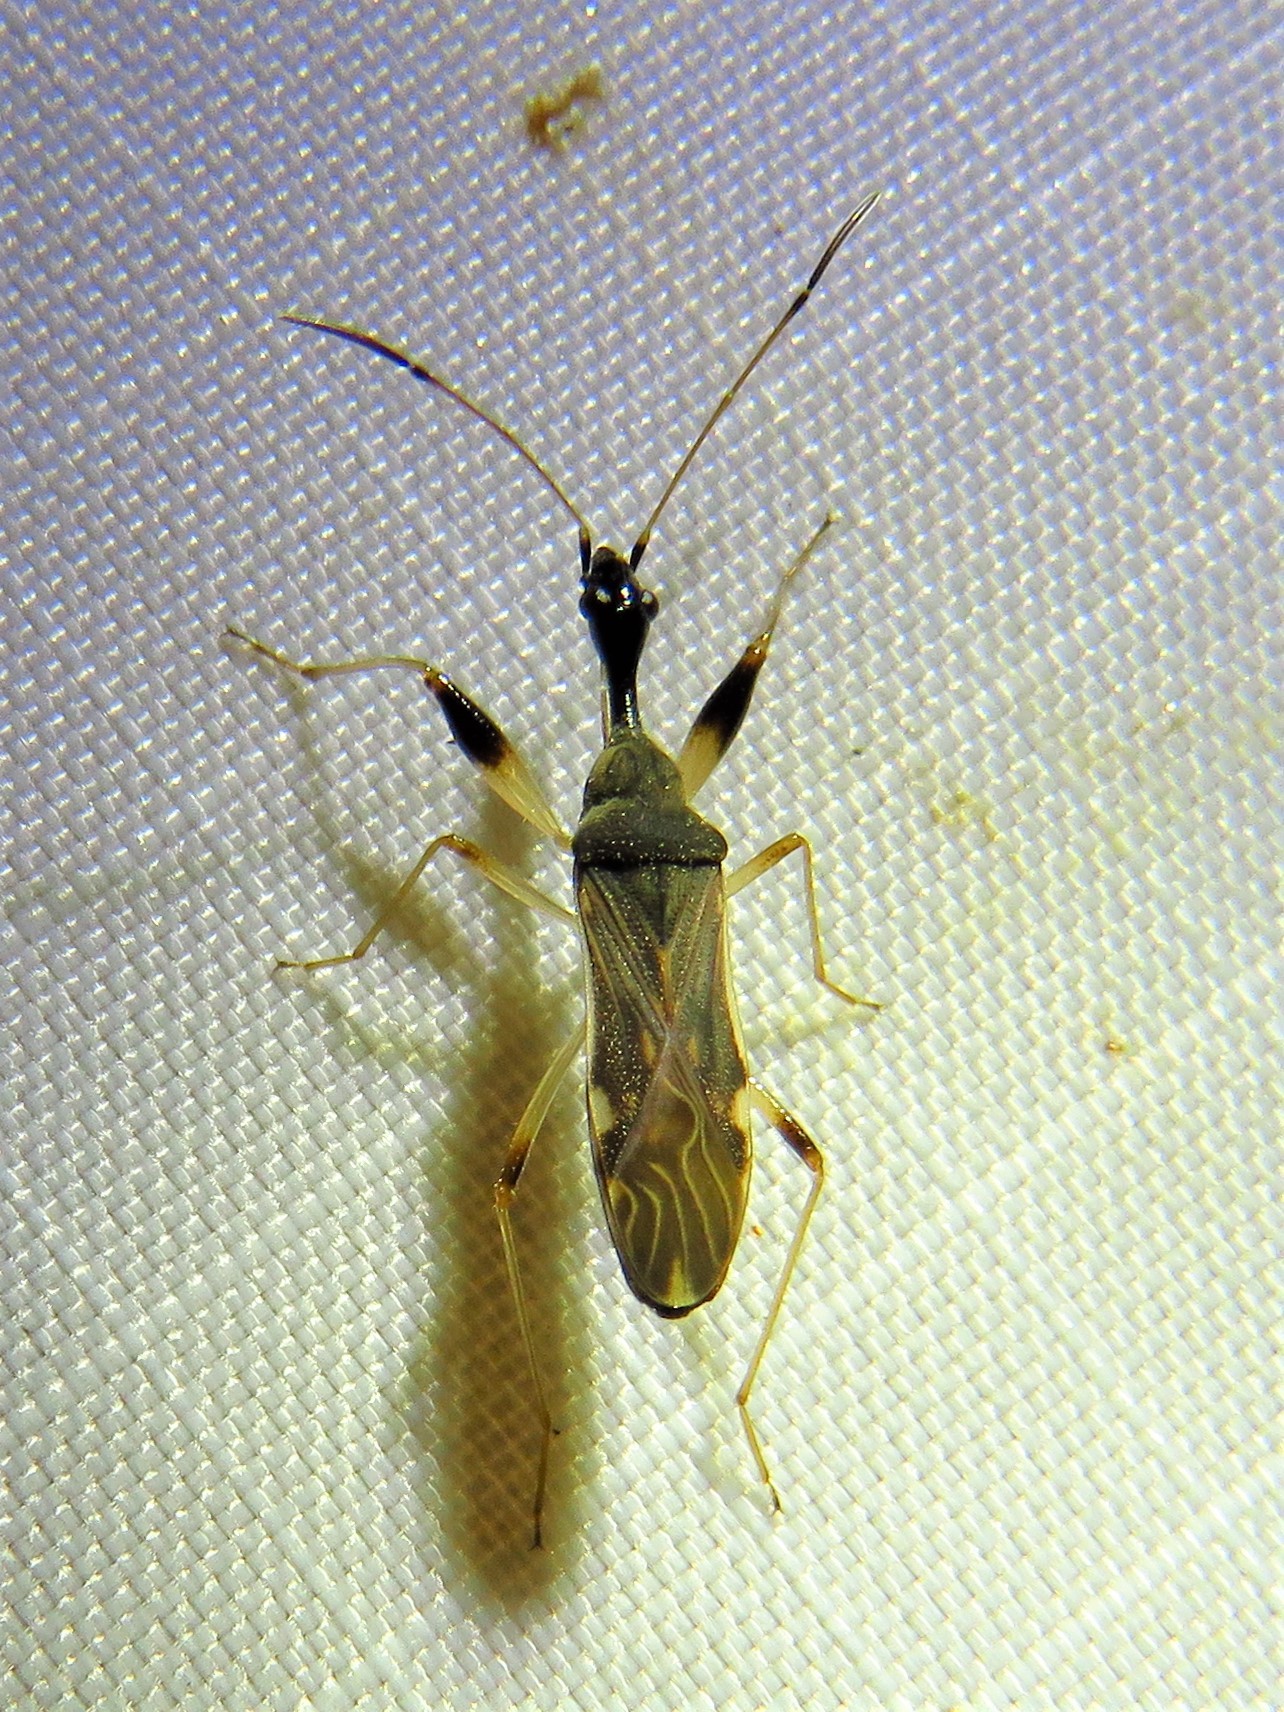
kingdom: Animalia
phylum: Arthropoda
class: Insecta
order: Hemiptera
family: Rhyparochromidae
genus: Myodocha
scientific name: Myodocha serripes
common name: Long-necked seed bug
